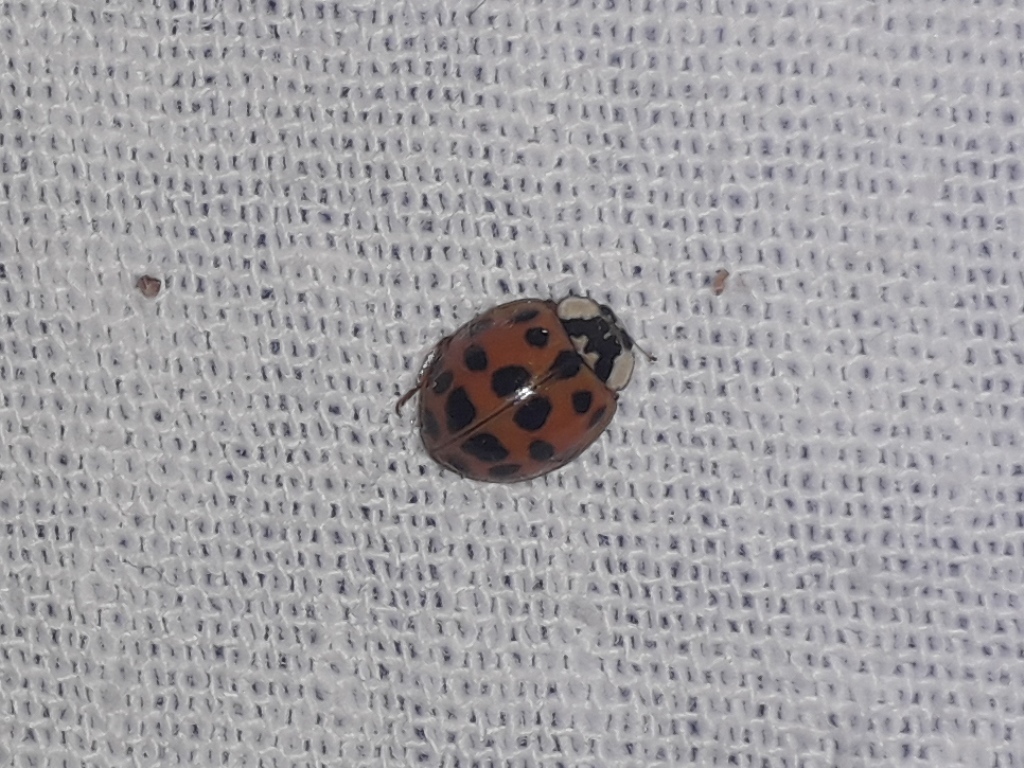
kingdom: Animalia
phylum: Arthropoda
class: Insecta
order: Coleoptera
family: Coccinellidae
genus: Harmonia
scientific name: Harmonia axyridis
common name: Harlequin ladybird
